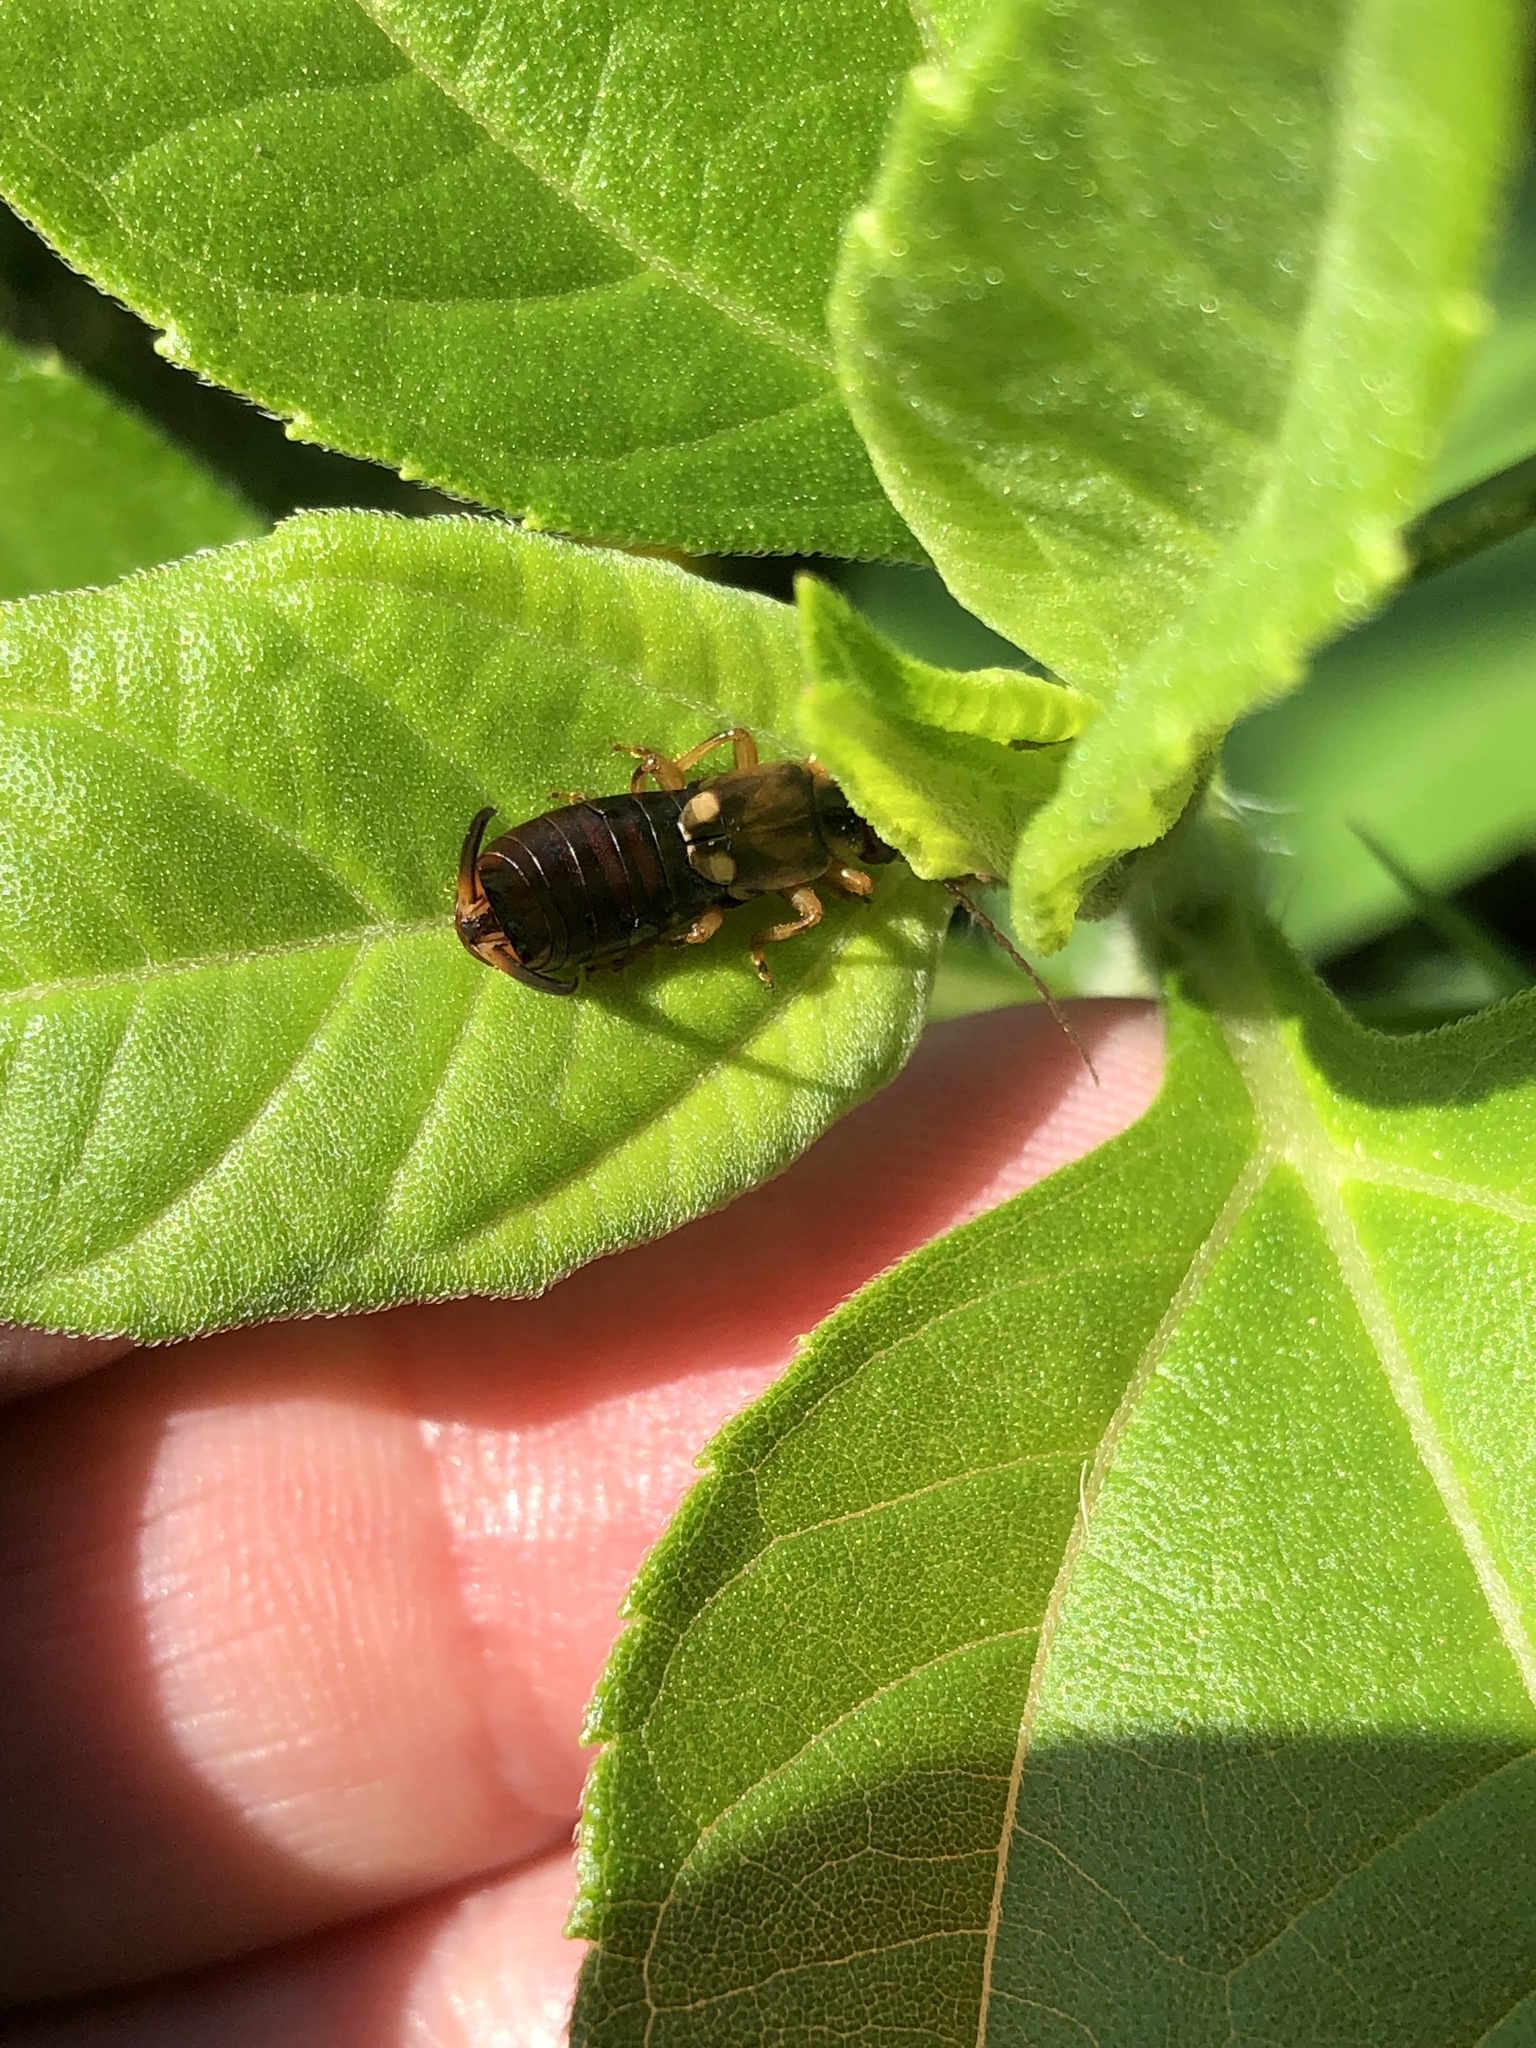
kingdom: Animalia
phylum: Arthropoda
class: Insecta
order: Dermaptera
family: Forficulidae
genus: Forficula
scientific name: Forficula
